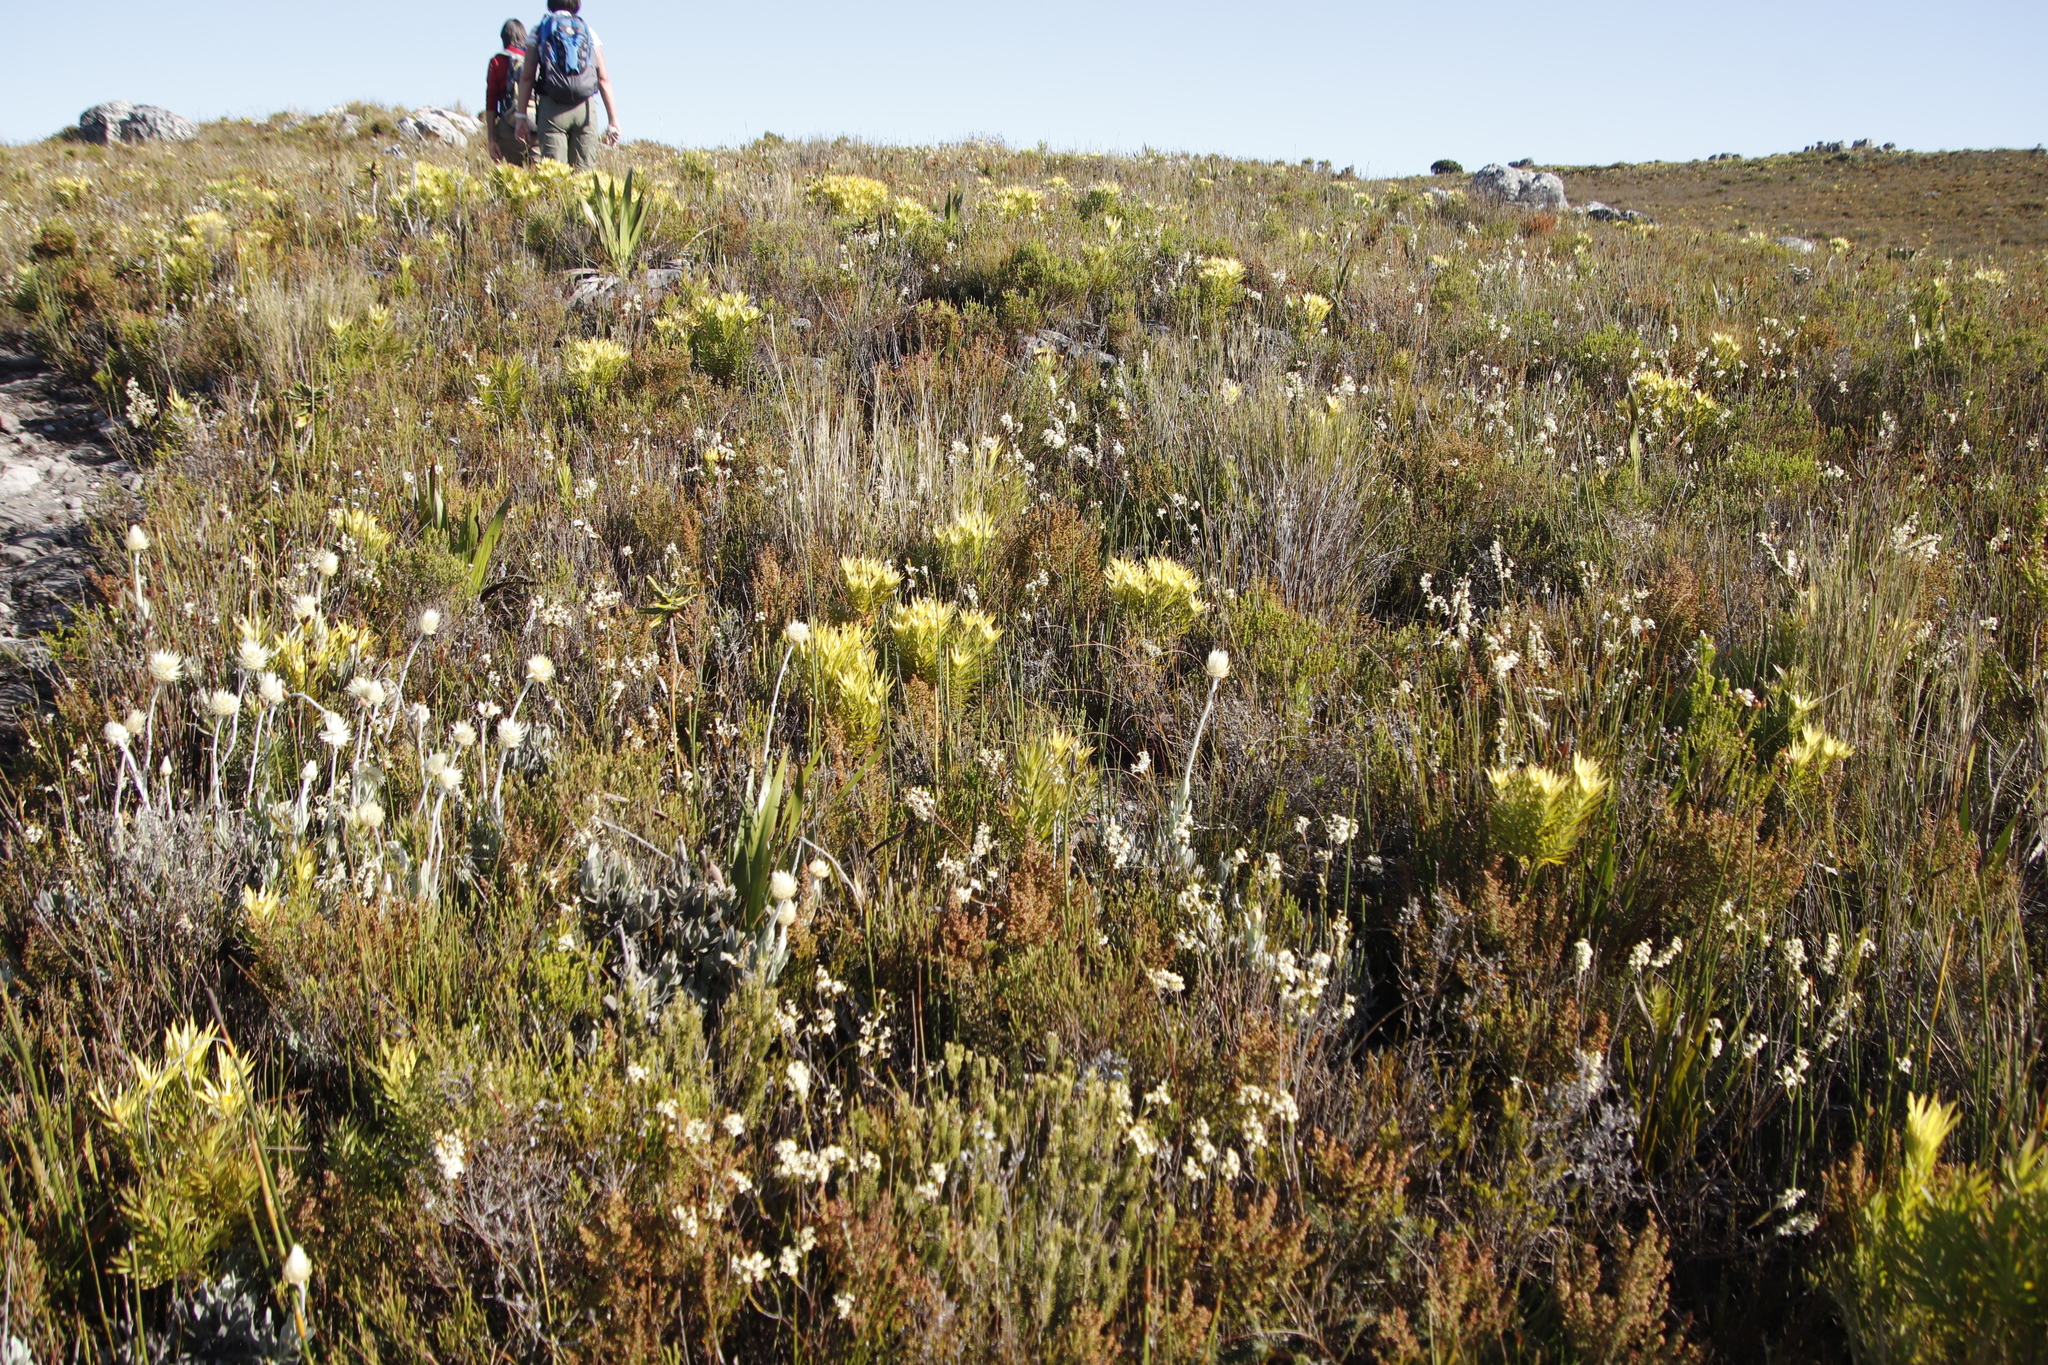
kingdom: Plantae
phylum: Tracheophyta
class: Magnoliopsida
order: Asterales
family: Asteraceae
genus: Syncarpha
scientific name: Syncarpha speciosissima
